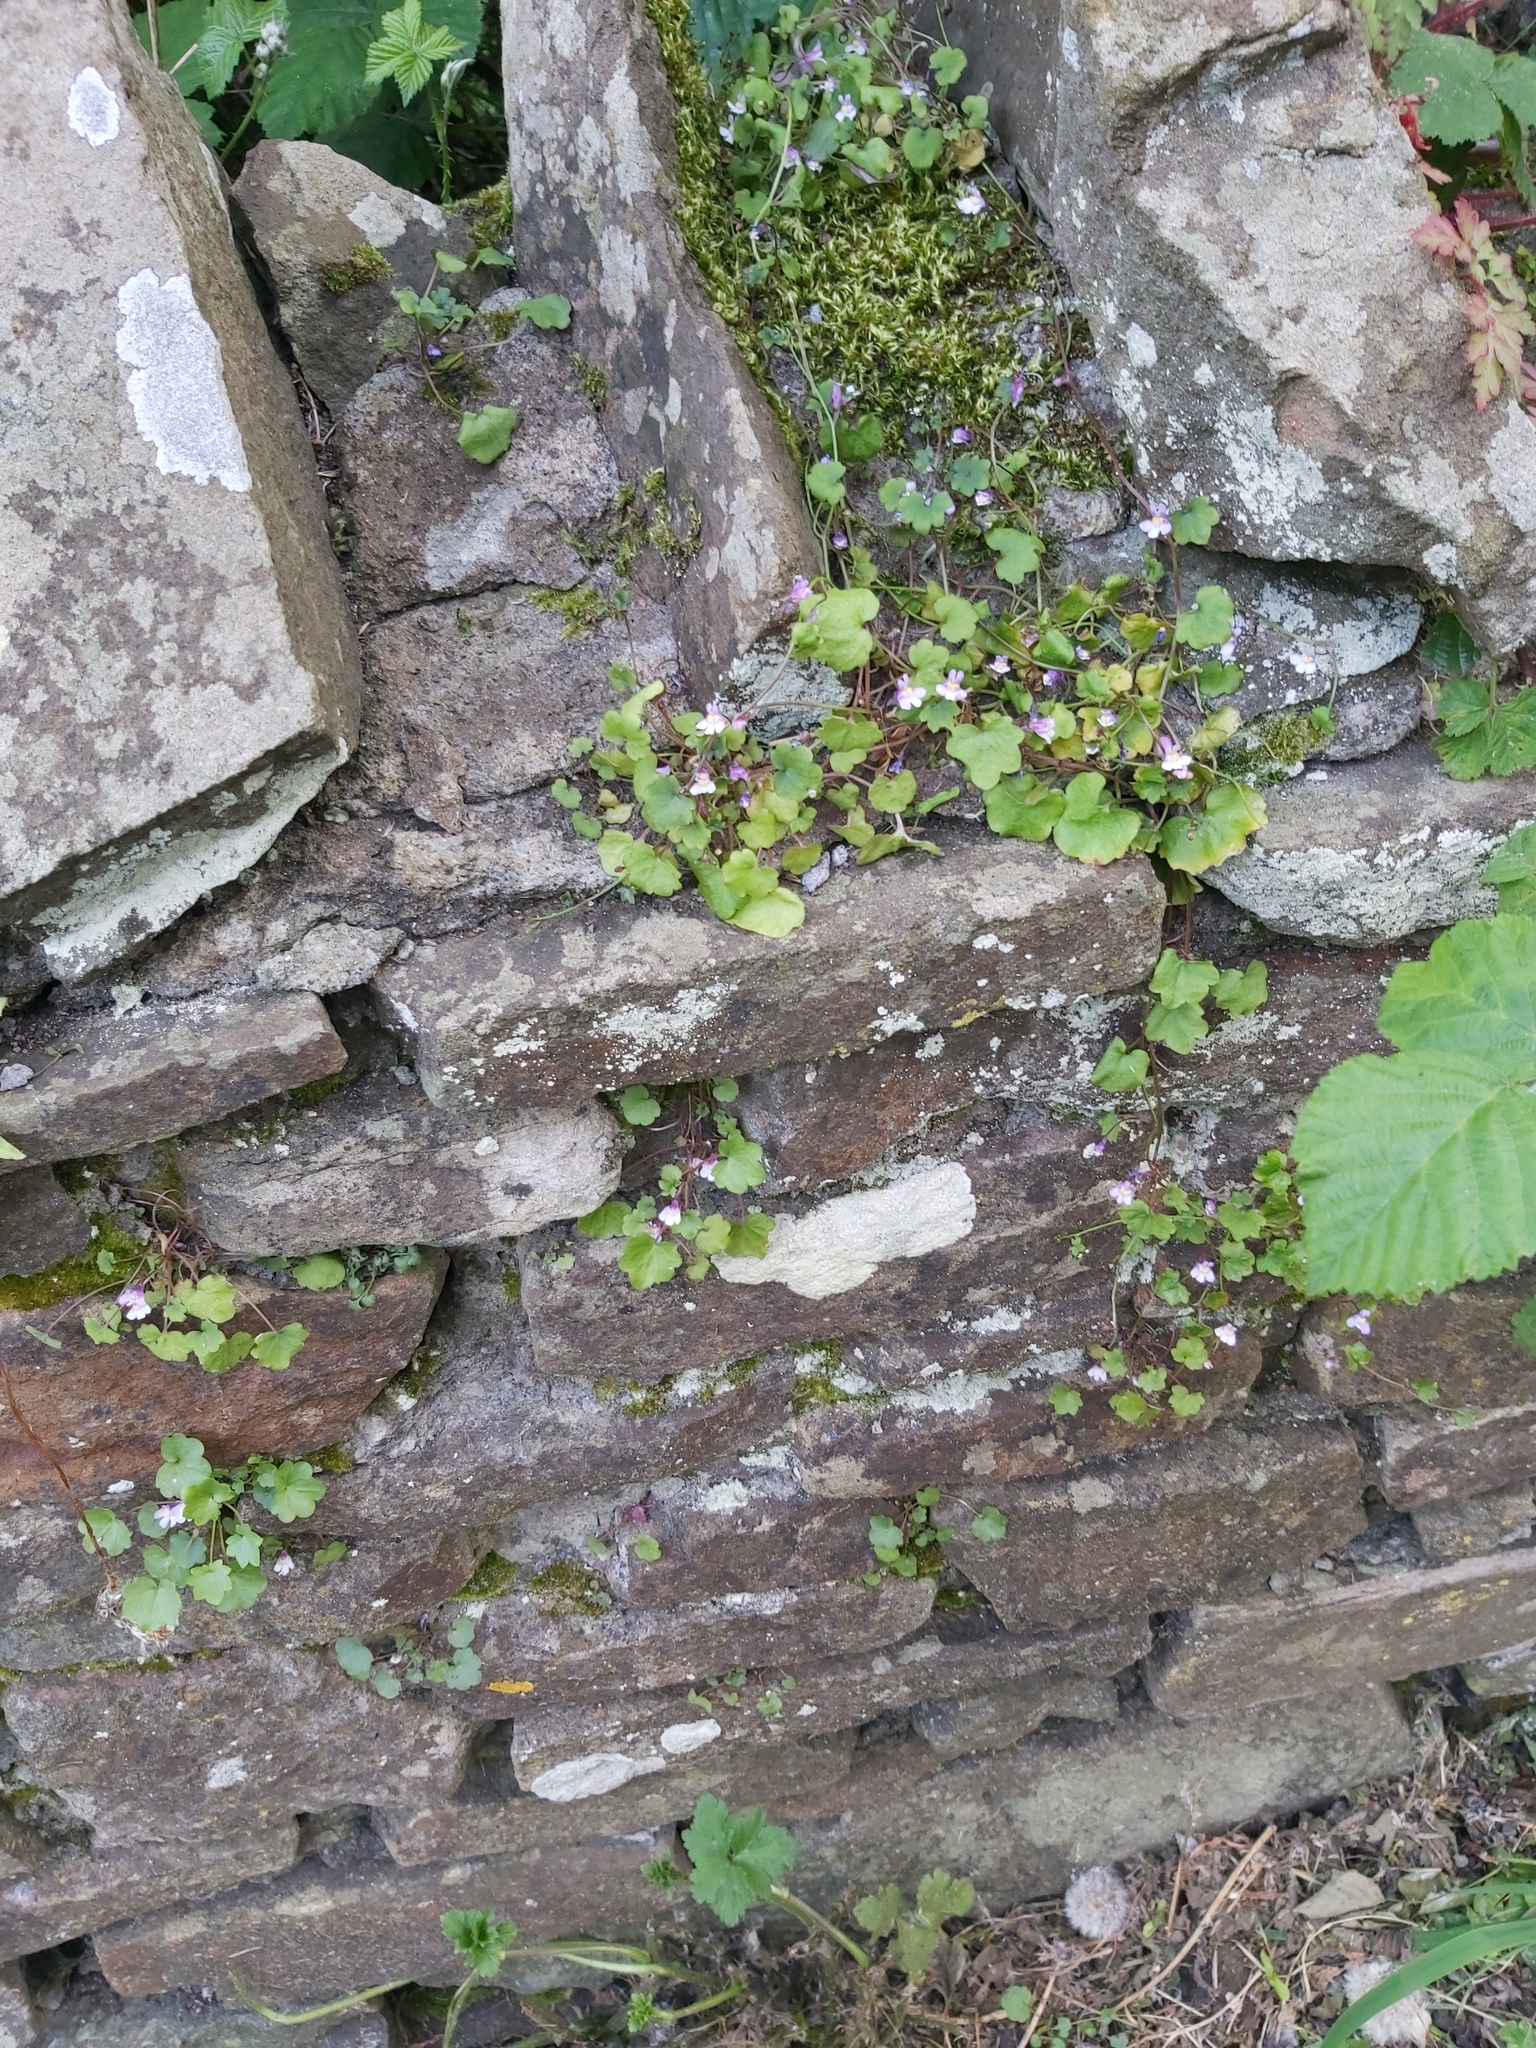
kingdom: Plantae
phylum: Tracheophyta
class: Magnoliopsida
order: Lamiales
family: Plantaginaceae
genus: Cymbalaria
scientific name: Cymbalaria muralis
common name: Ivy-leaved toadflax
